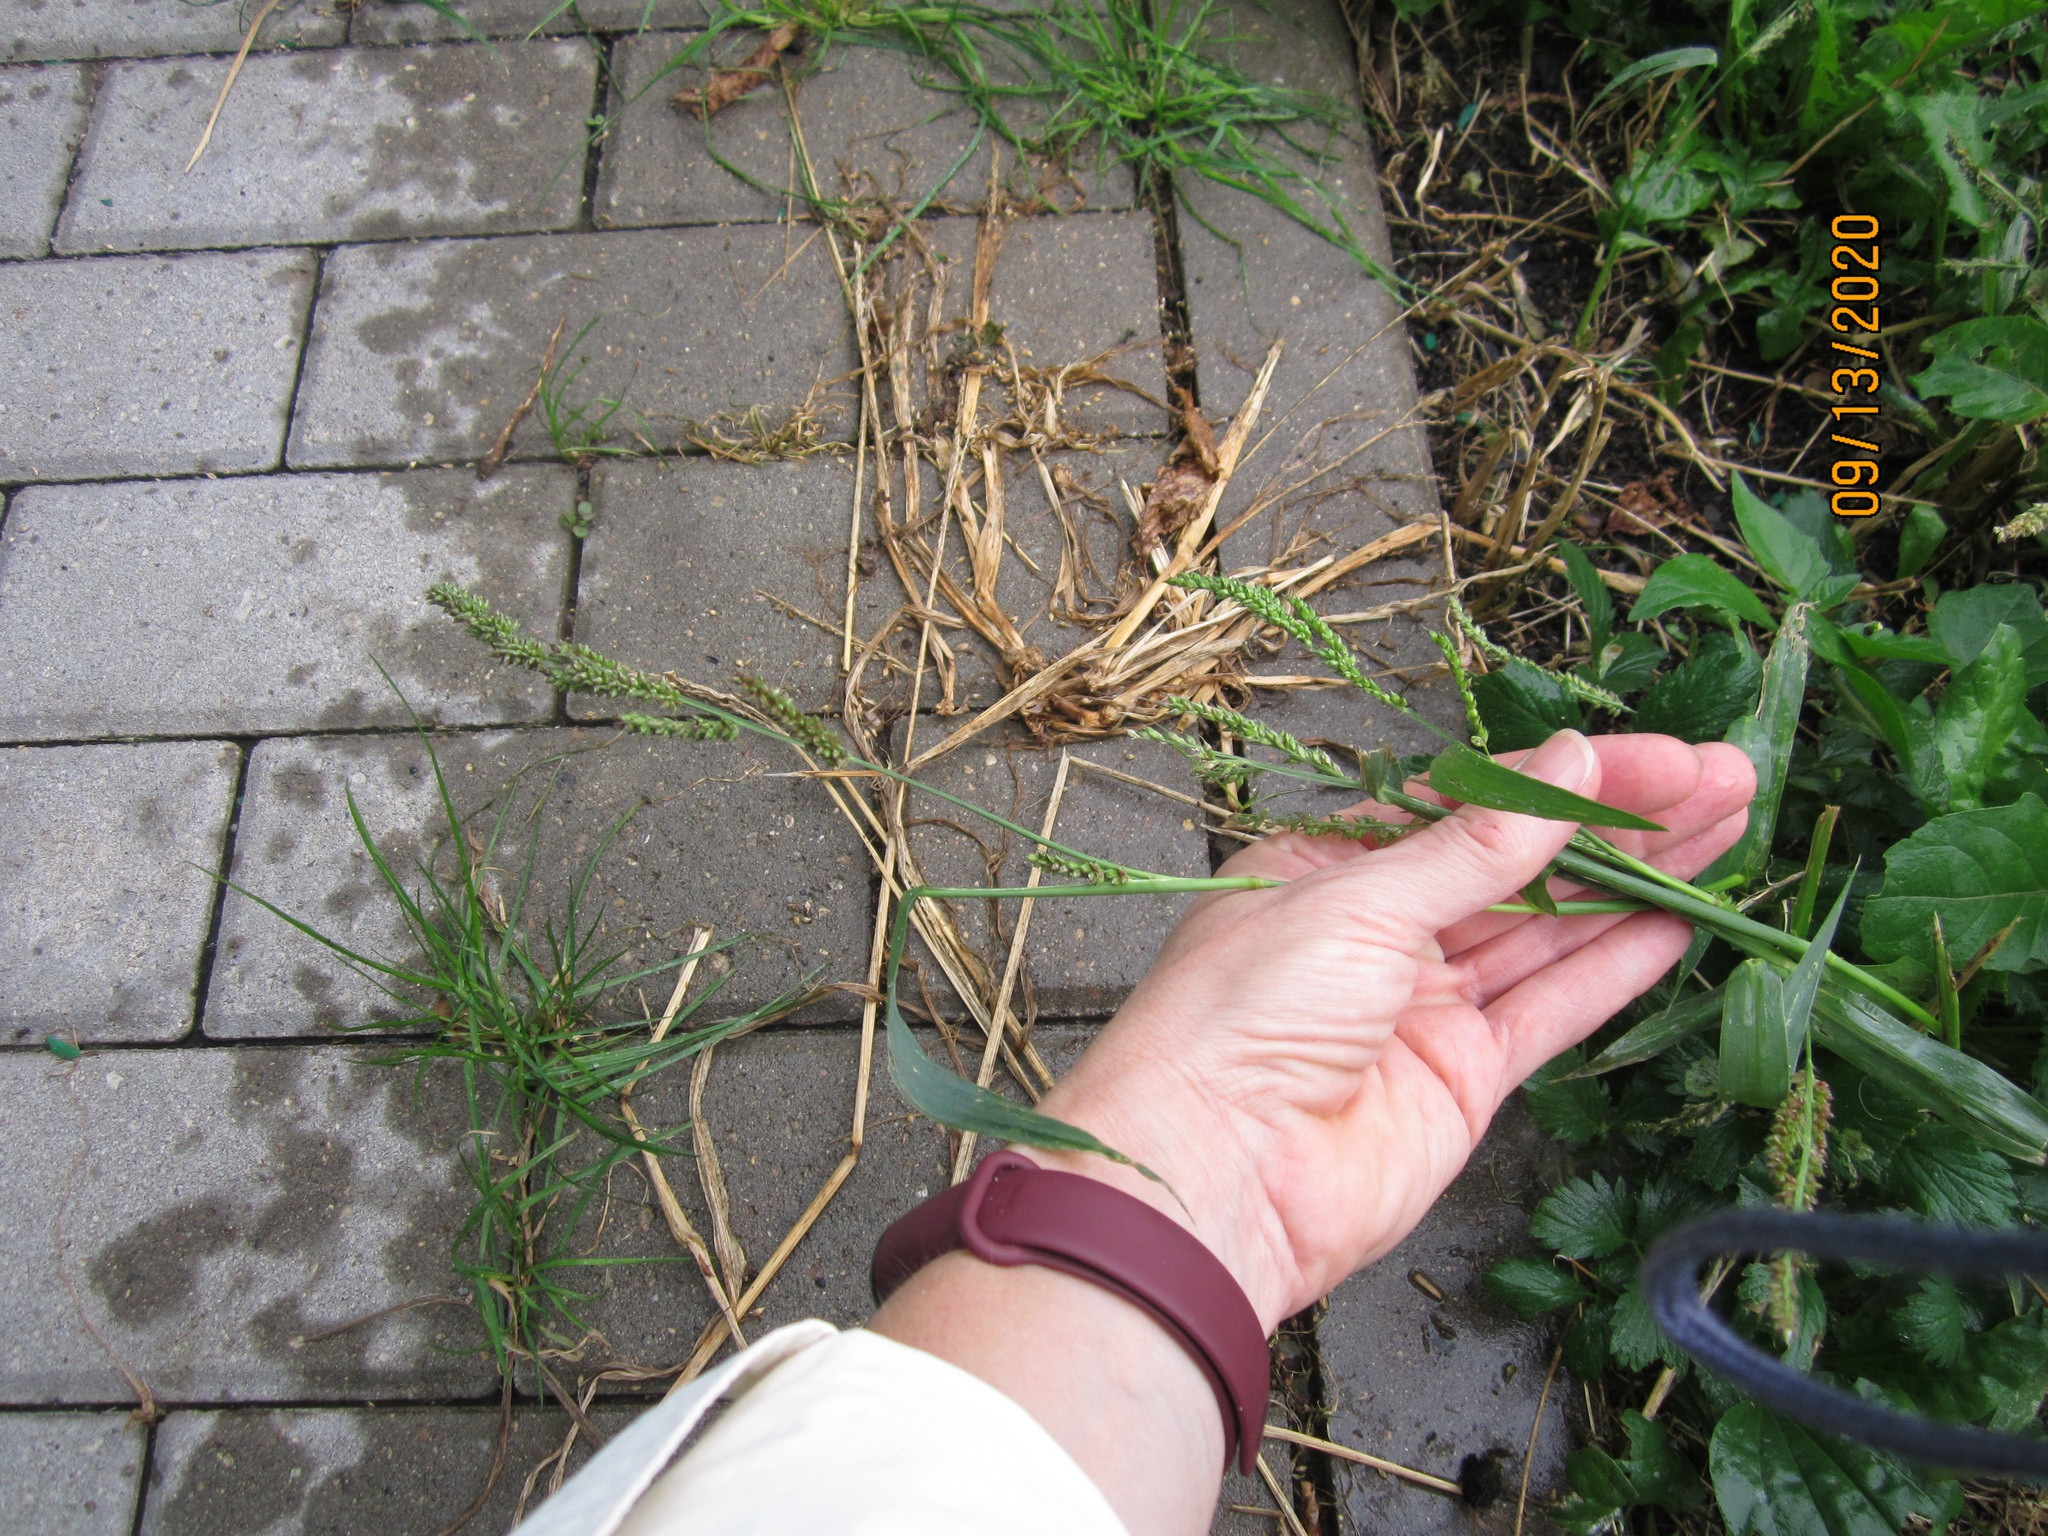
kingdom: Plantae
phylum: Tracheophyta
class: Liliopsida
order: Poales
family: Poaceae
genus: Echinochloa
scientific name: Echinochloa crus-galli
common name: Cockspur
